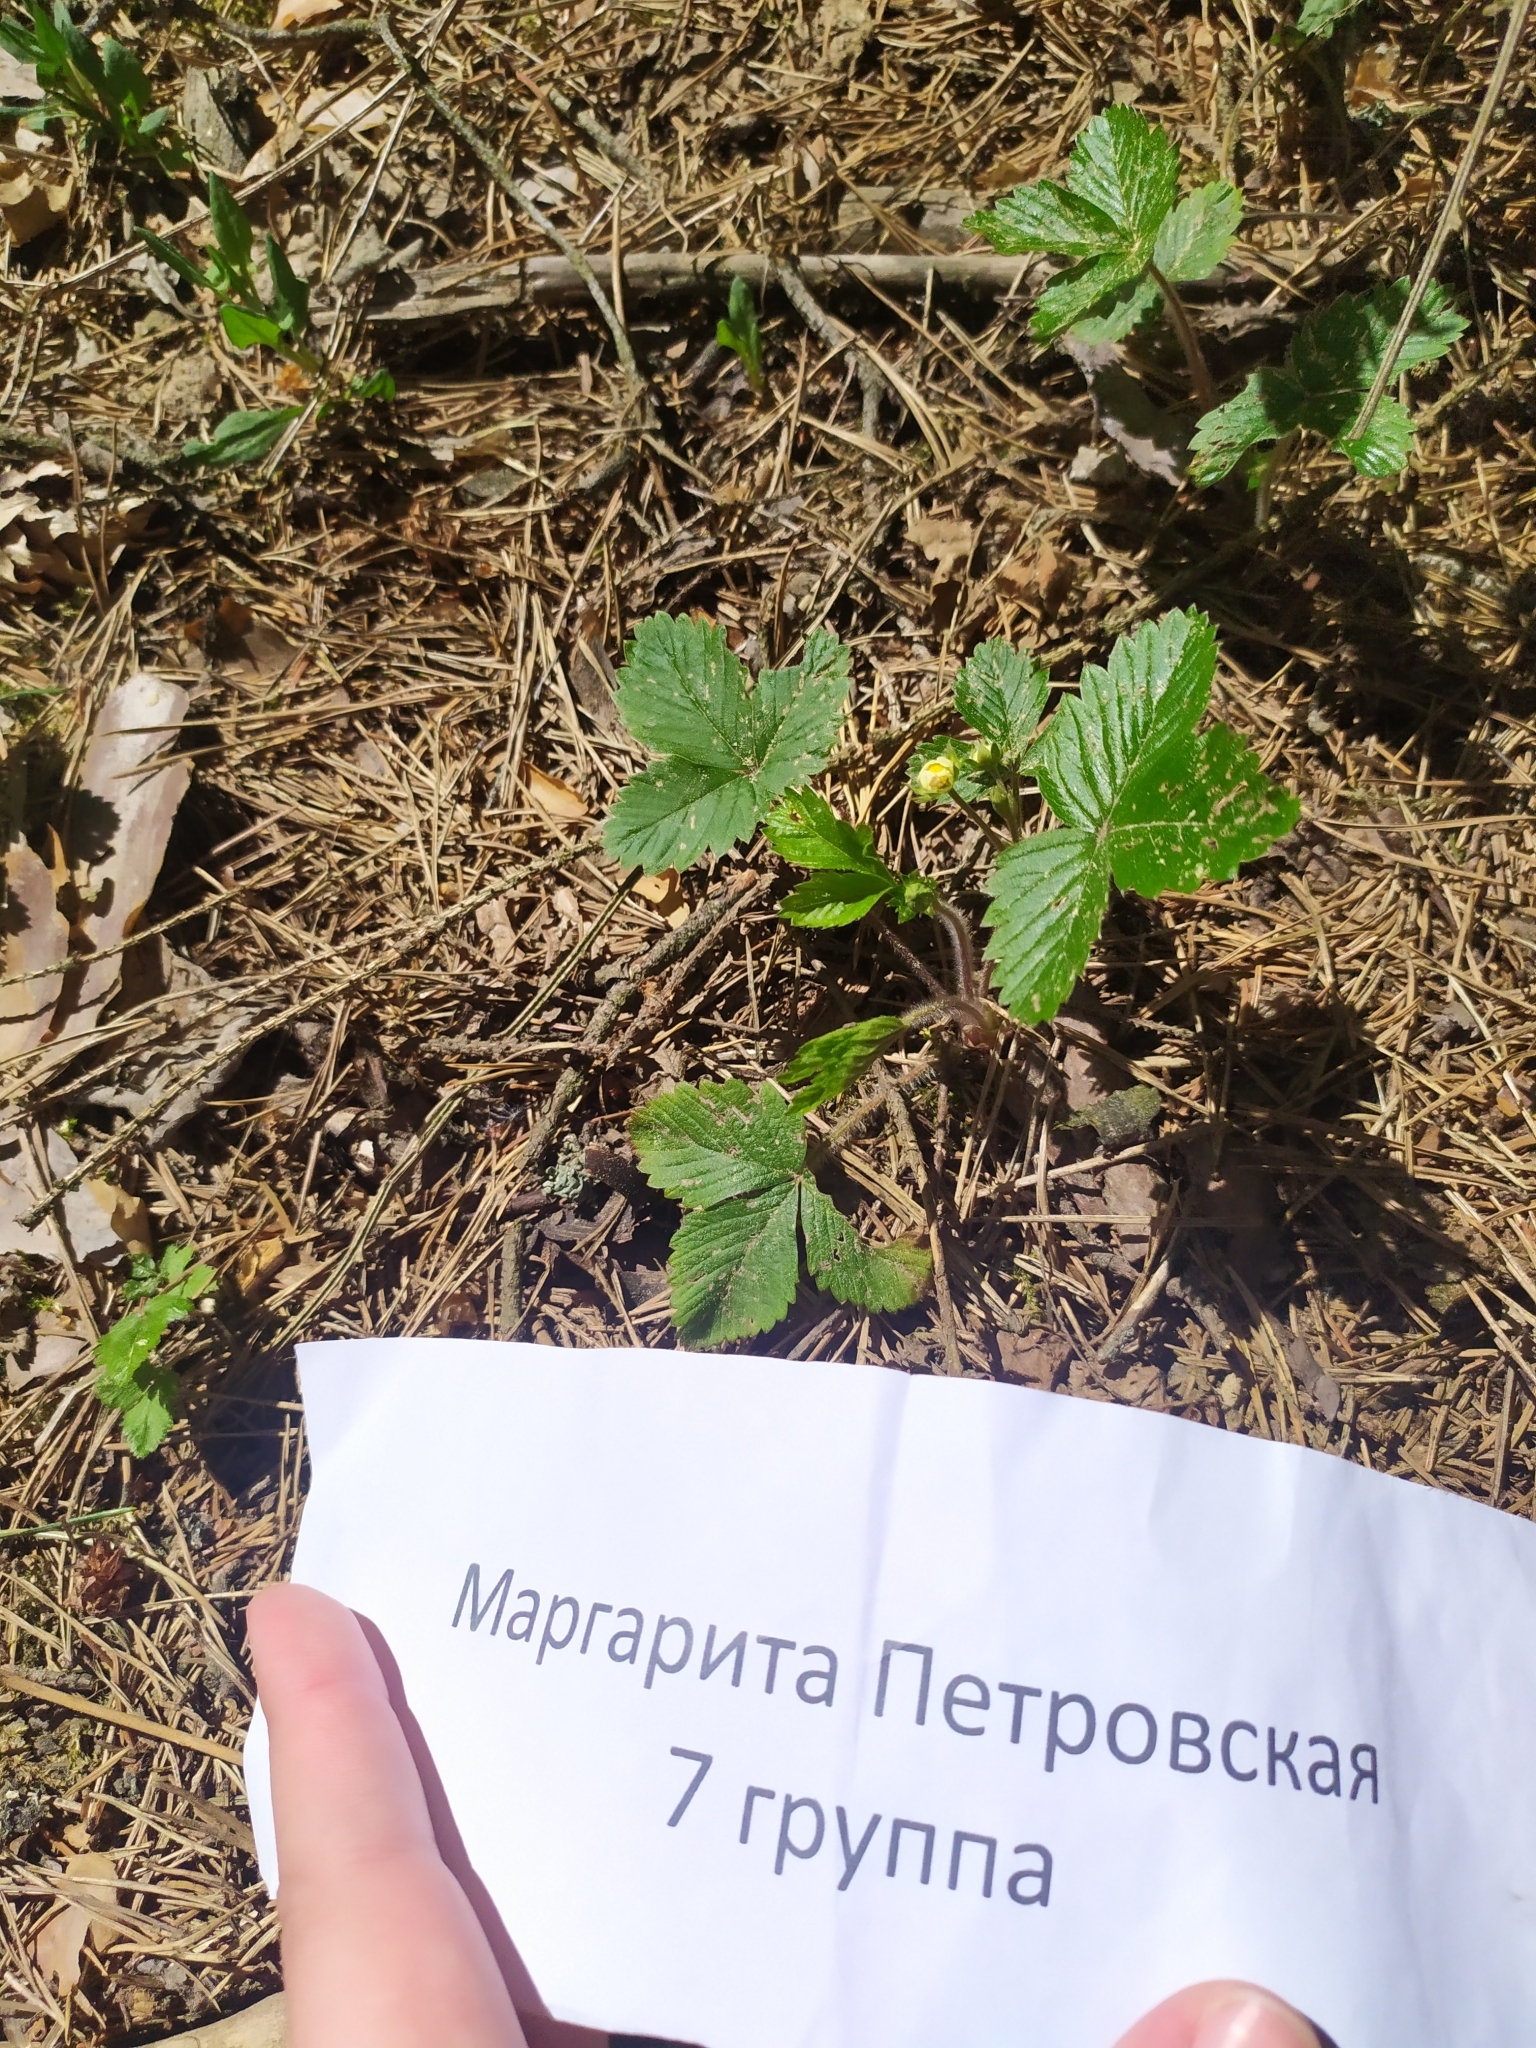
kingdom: Plantae
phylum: Tracheophyta
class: Magnoliopsida
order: Rosales
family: Rosaceae
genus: Fragaria
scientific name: Fragaria vesca
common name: Wild strawberry
